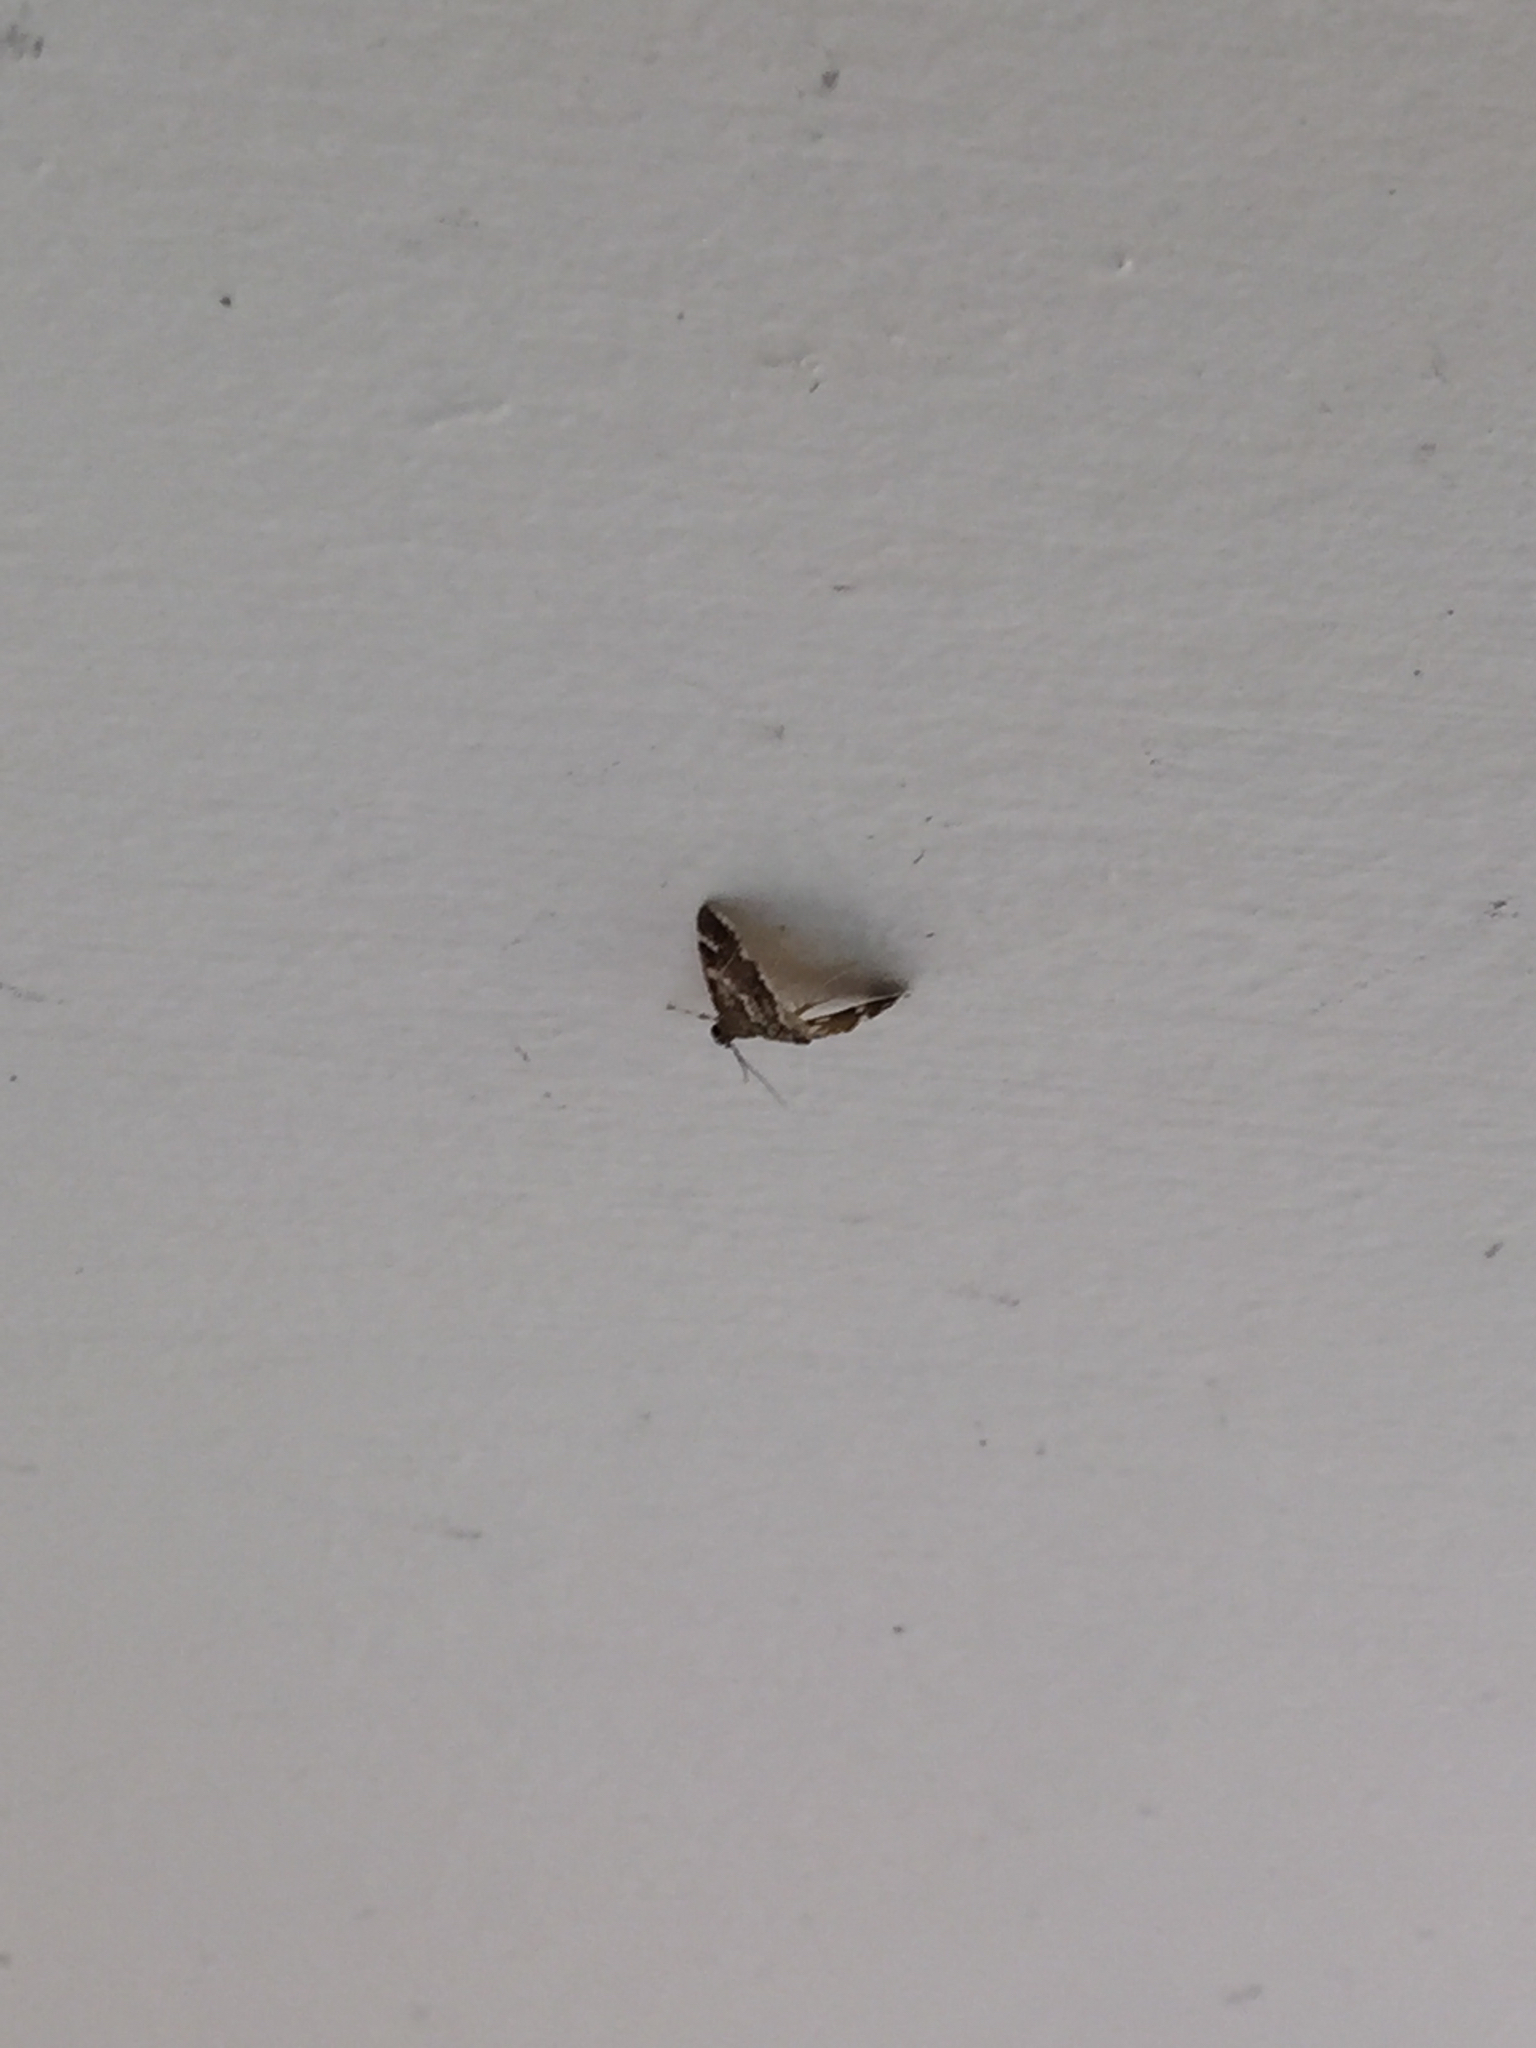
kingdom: Animalia
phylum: Arthropoda
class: Insecta
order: Lepidoptera
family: Crambidae
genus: Hymenia
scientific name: Hymenia perspectalis
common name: Spotted beet webworm
